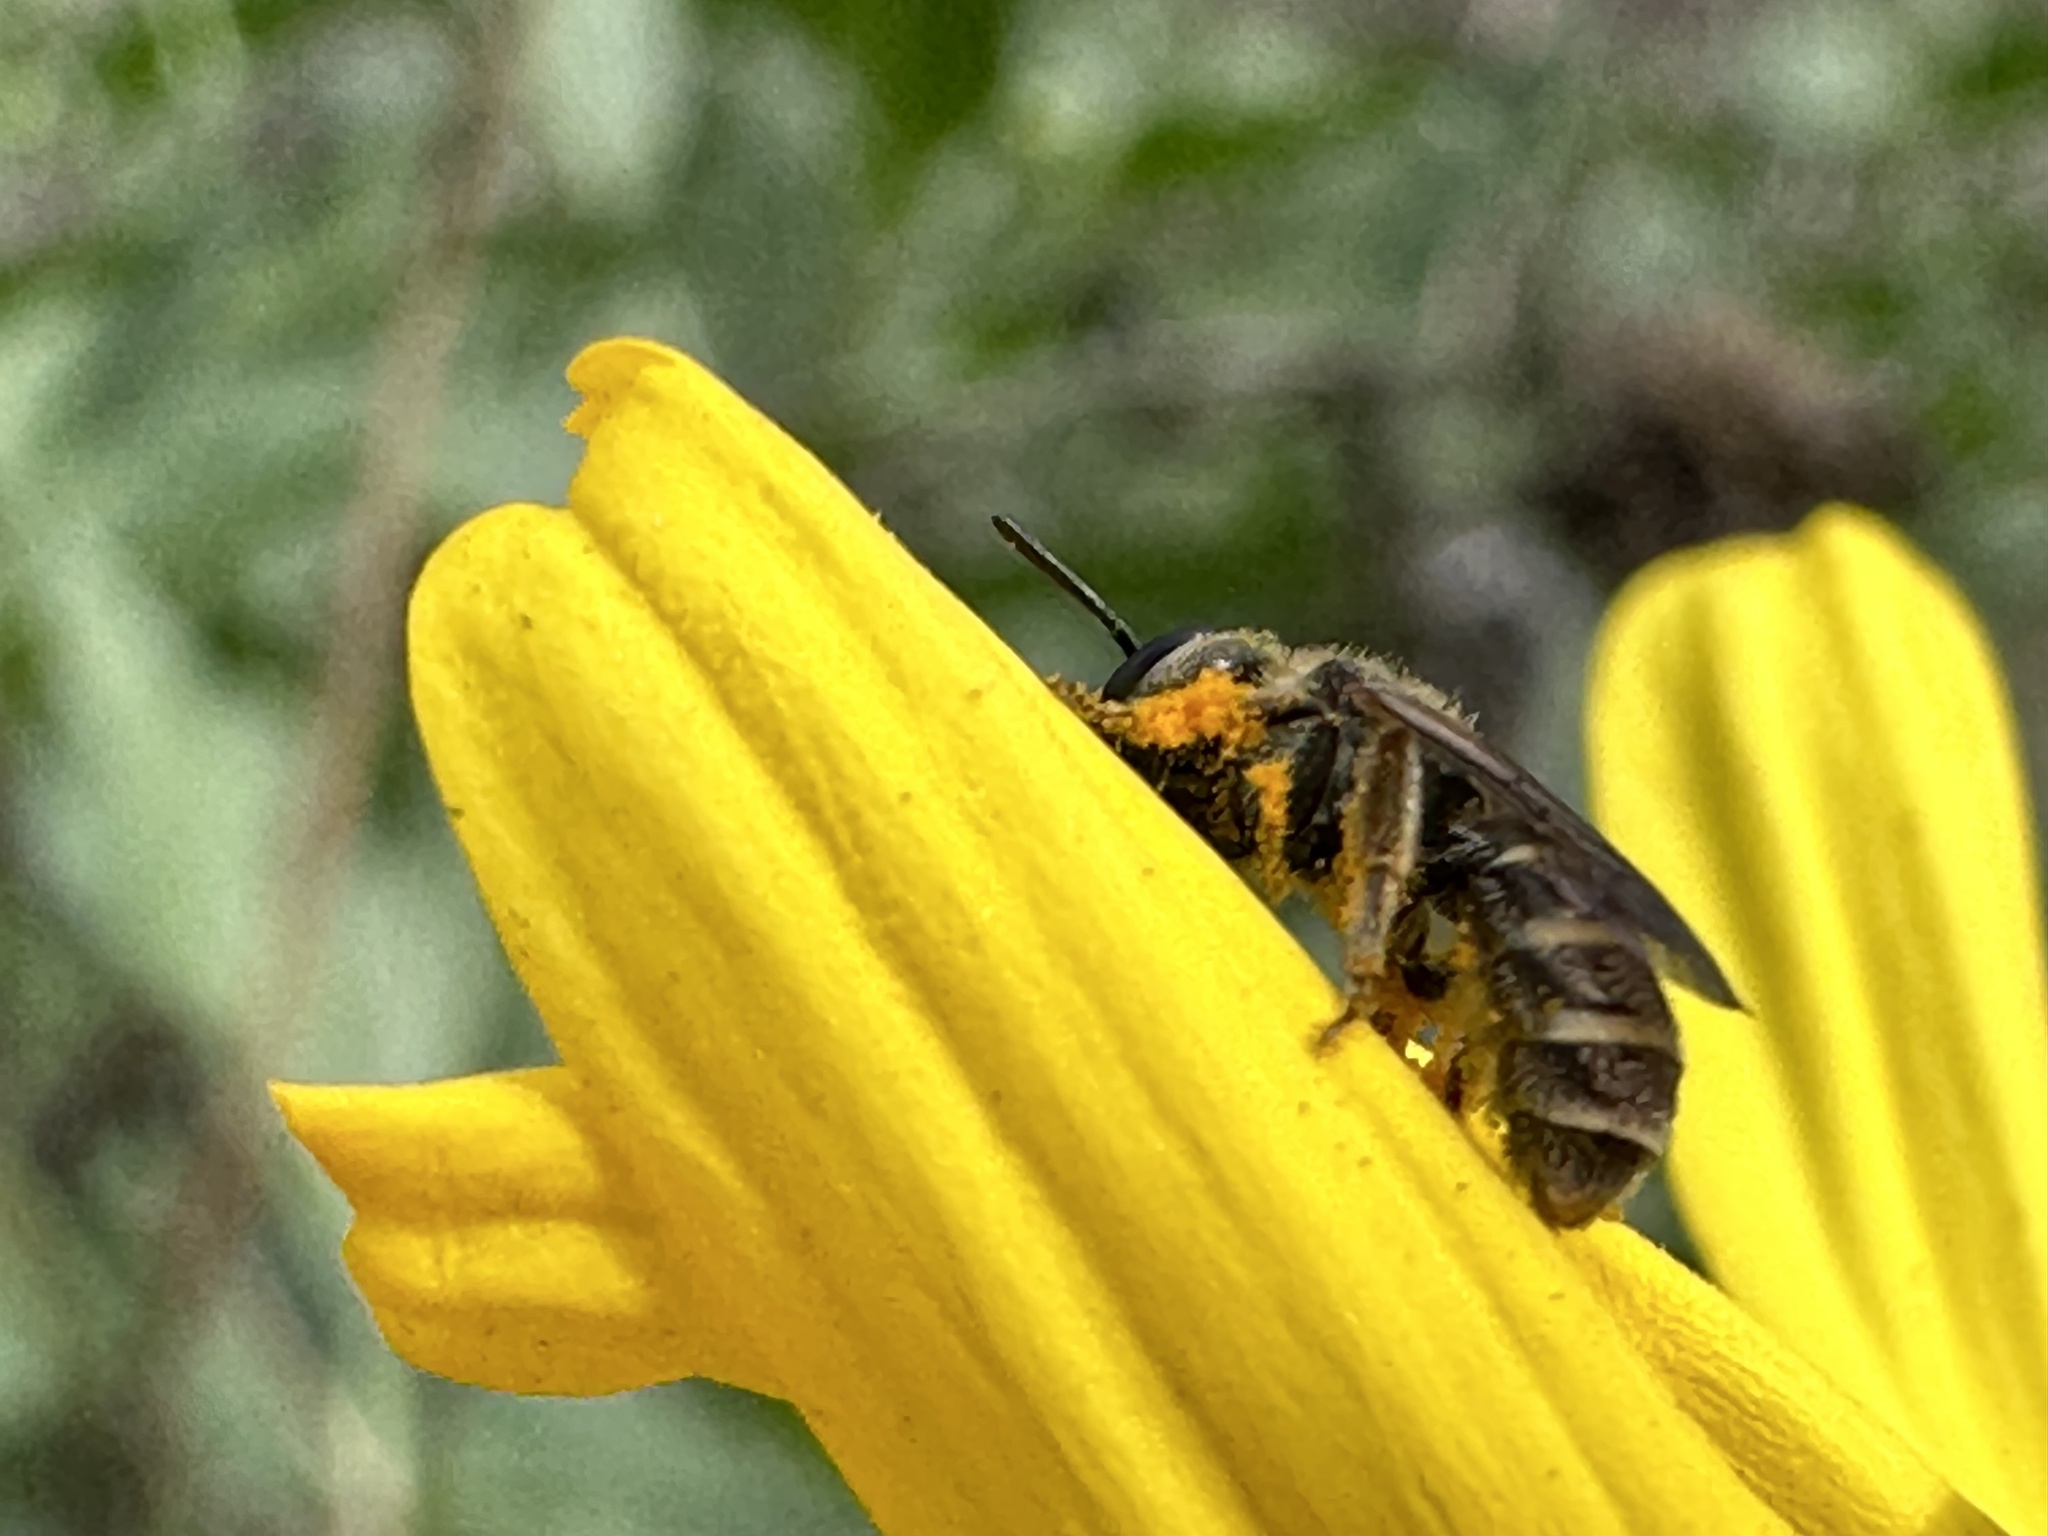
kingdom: Animalia
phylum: Arthropoda
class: Insecta
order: Hymenoptera
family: Halictidae
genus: Halictus
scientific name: Halictus tripartitus
